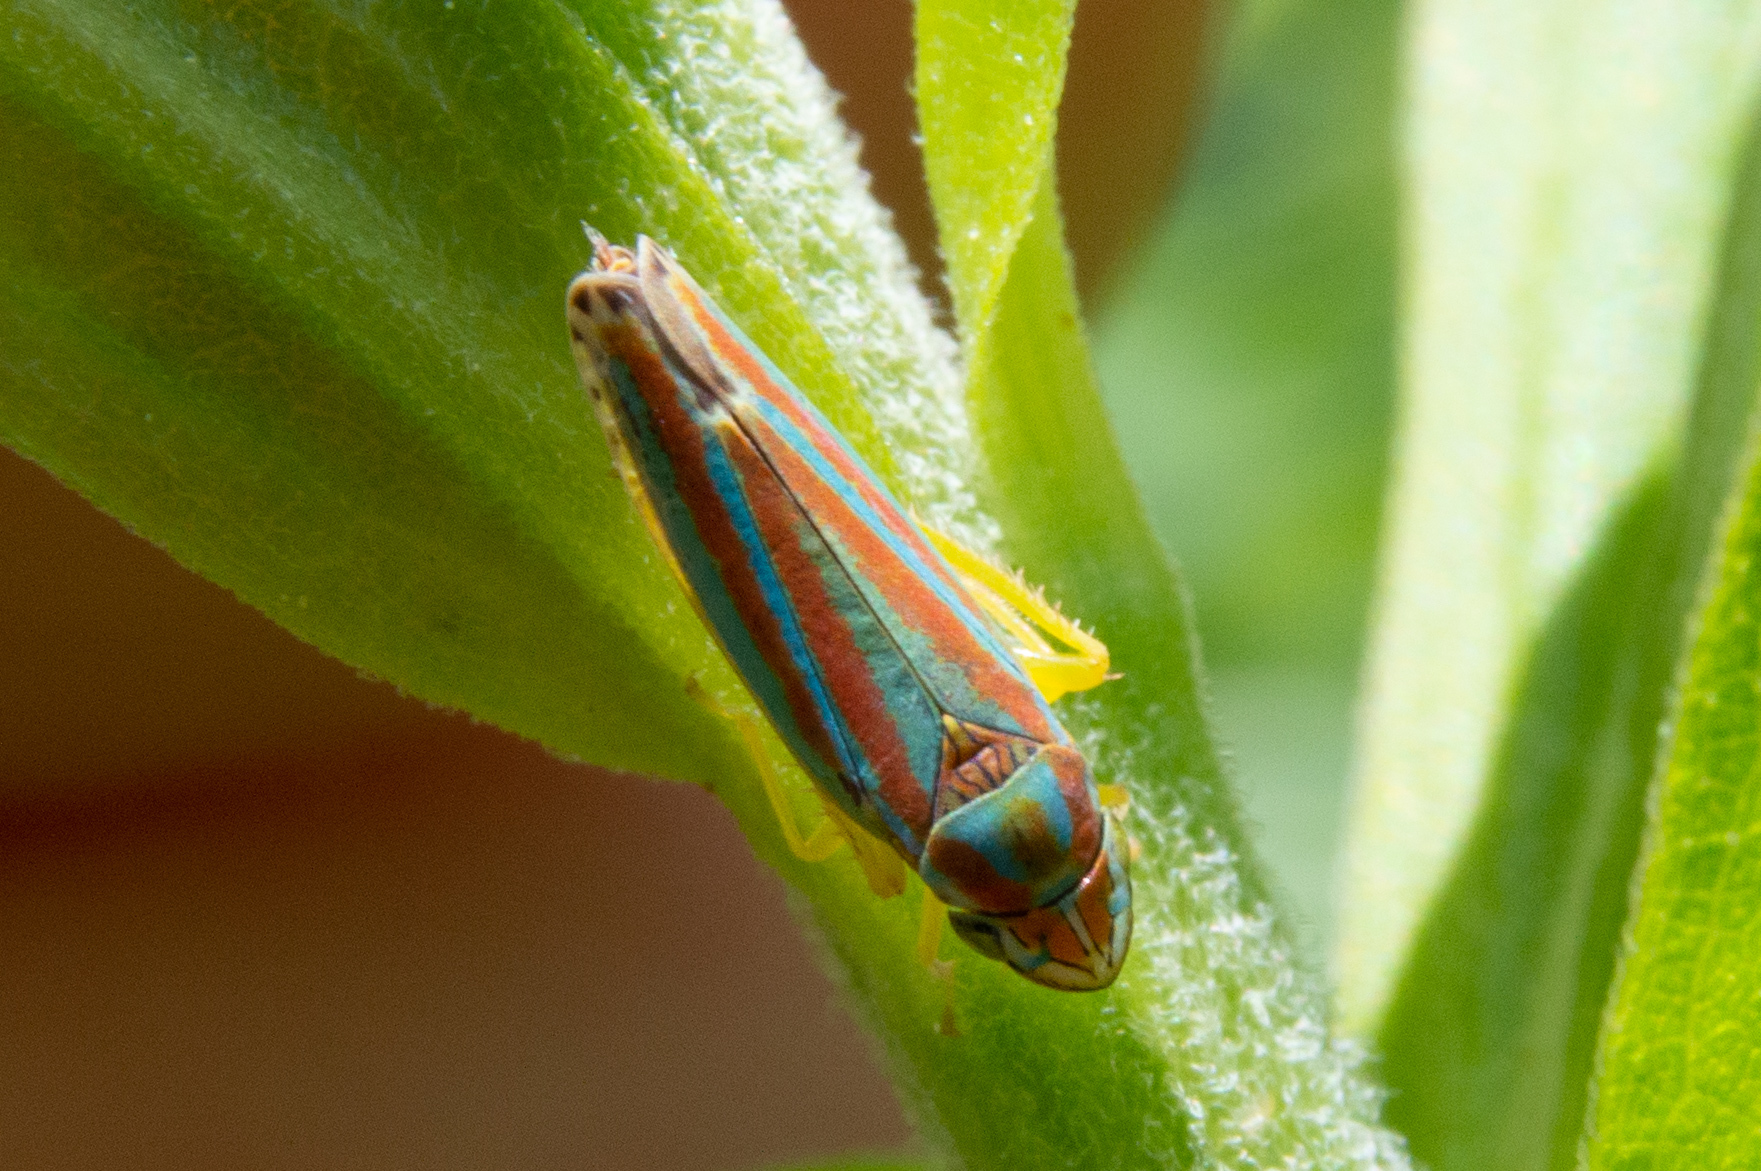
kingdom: Animalia
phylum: Arthropoda
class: Insecta
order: Hemiptera
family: Cicadellidae
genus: Graphocephala
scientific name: Graphocephala versuta
